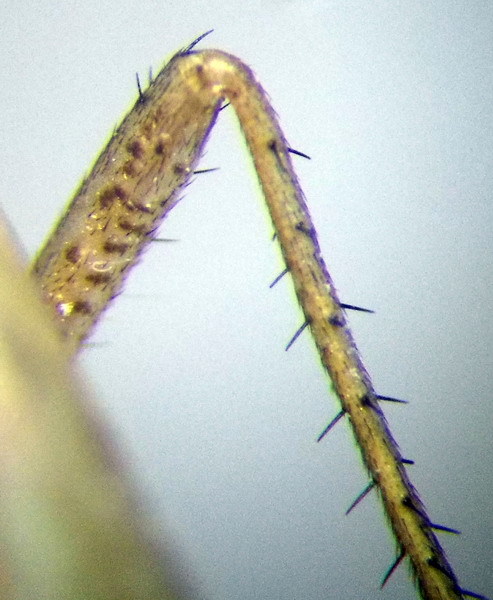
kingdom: Animalia
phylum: Arthropoda
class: Insecta
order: Hemiptera
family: Miridae
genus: Adelphocoris
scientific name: Adelphocoris lineolatus
